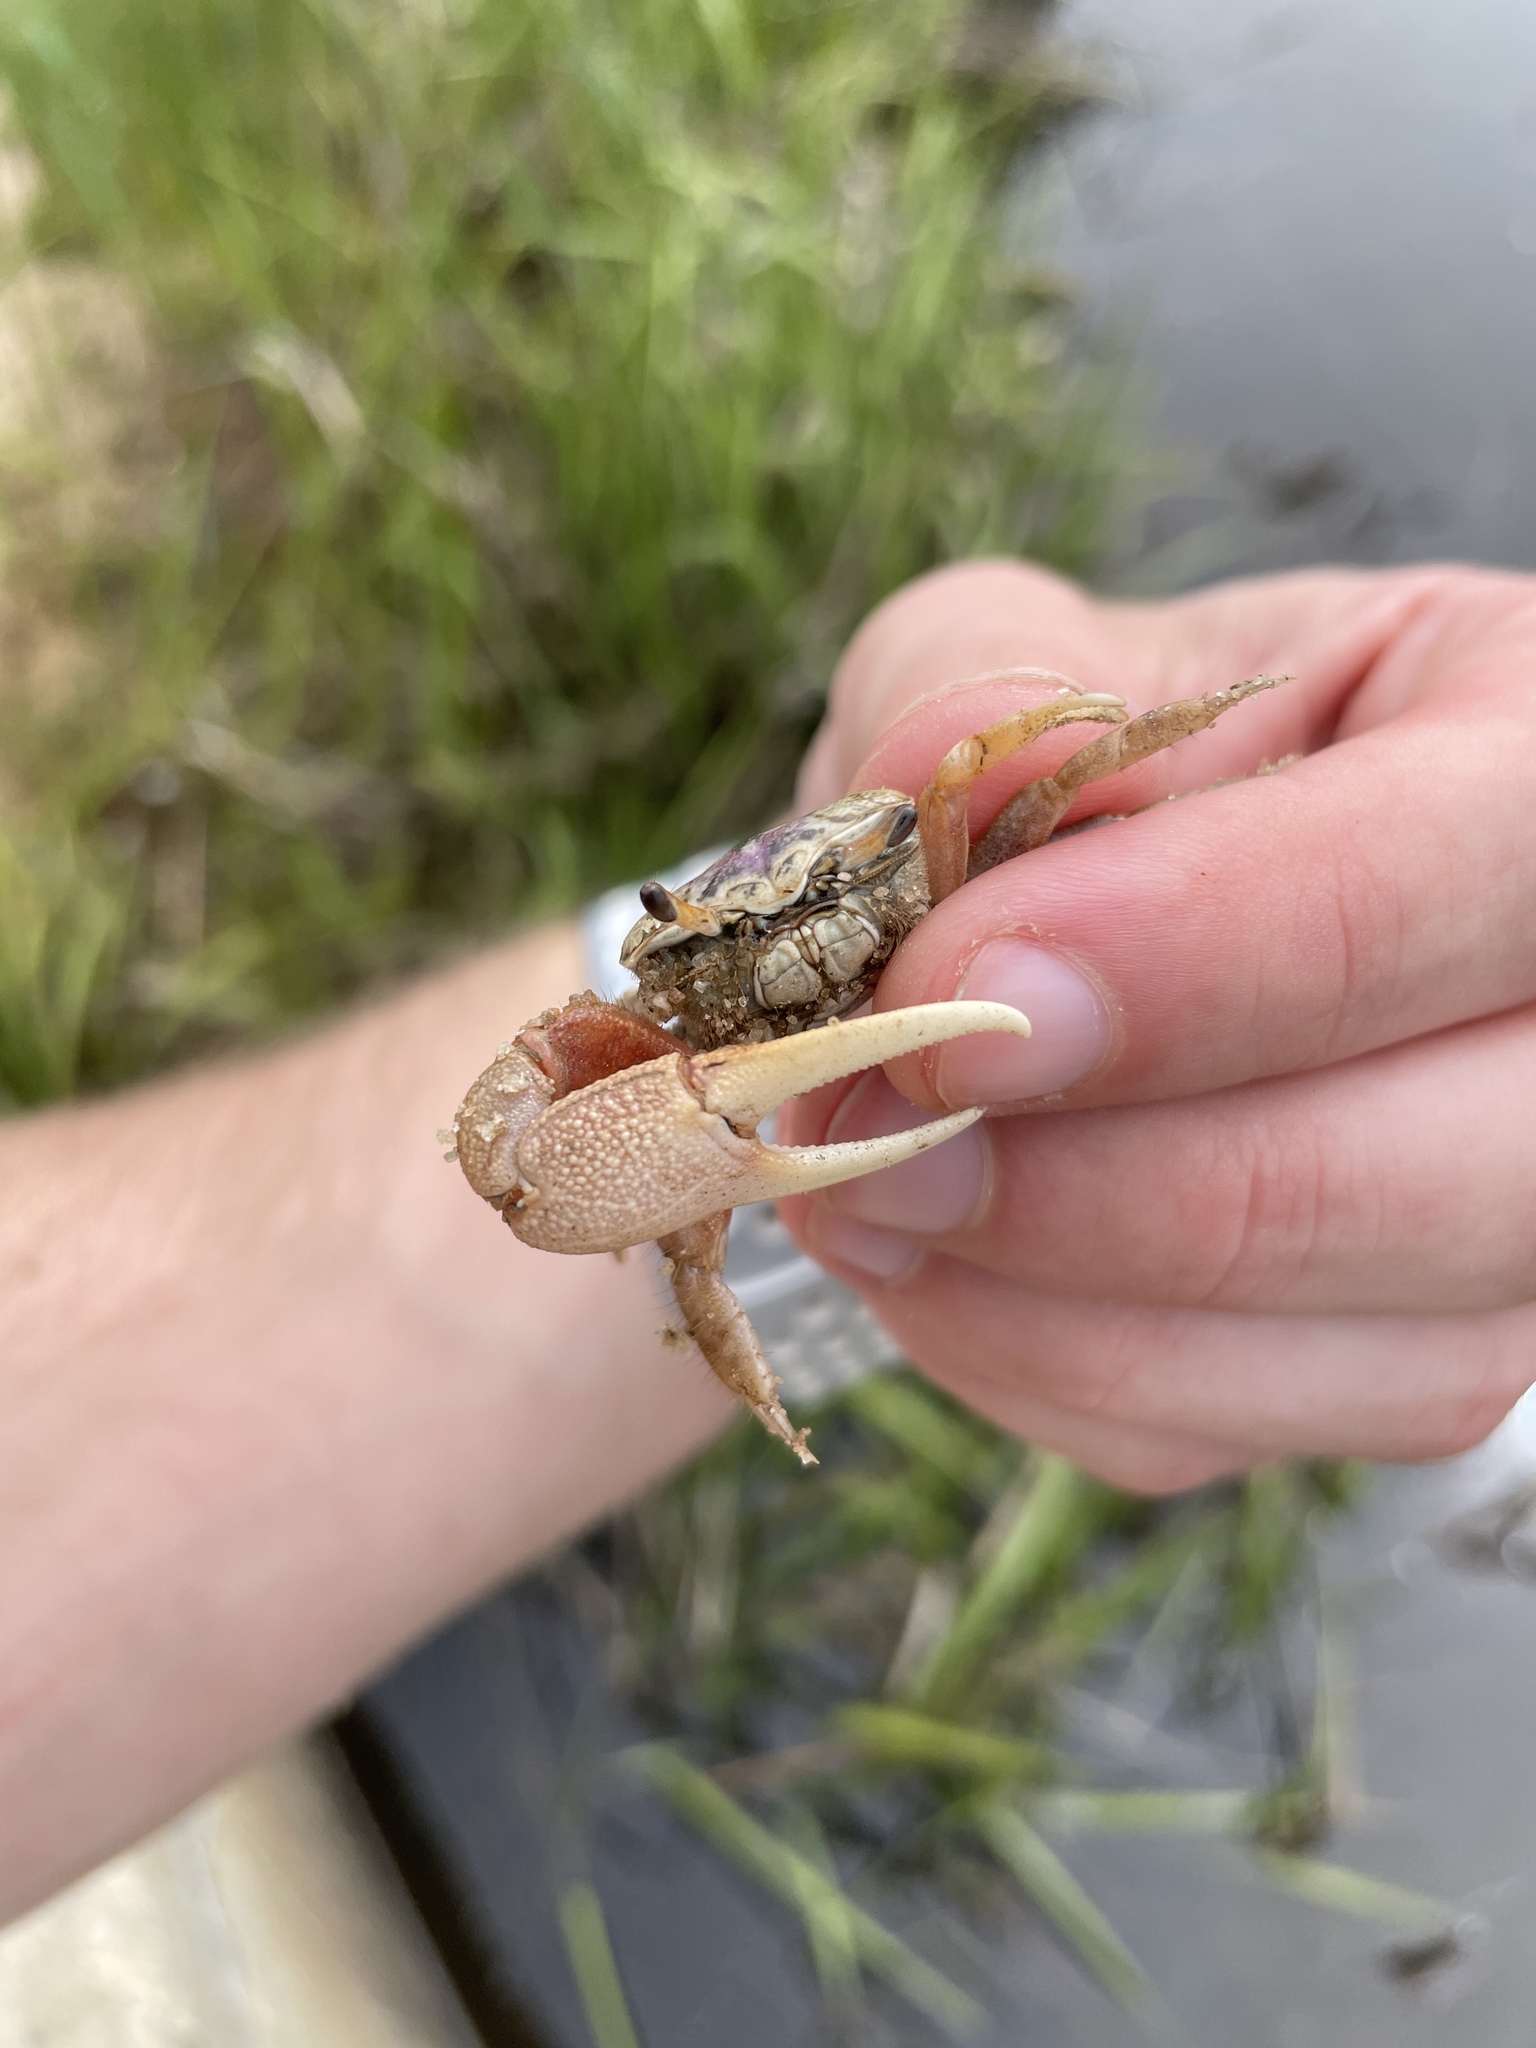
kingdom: Animalia
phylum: Arthropoda
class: Malacostraca
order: Decapoda
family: Ocypodidae
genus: Leptuca
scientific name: Leptuca pugilator
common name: Atlantic sand fiddler crab
